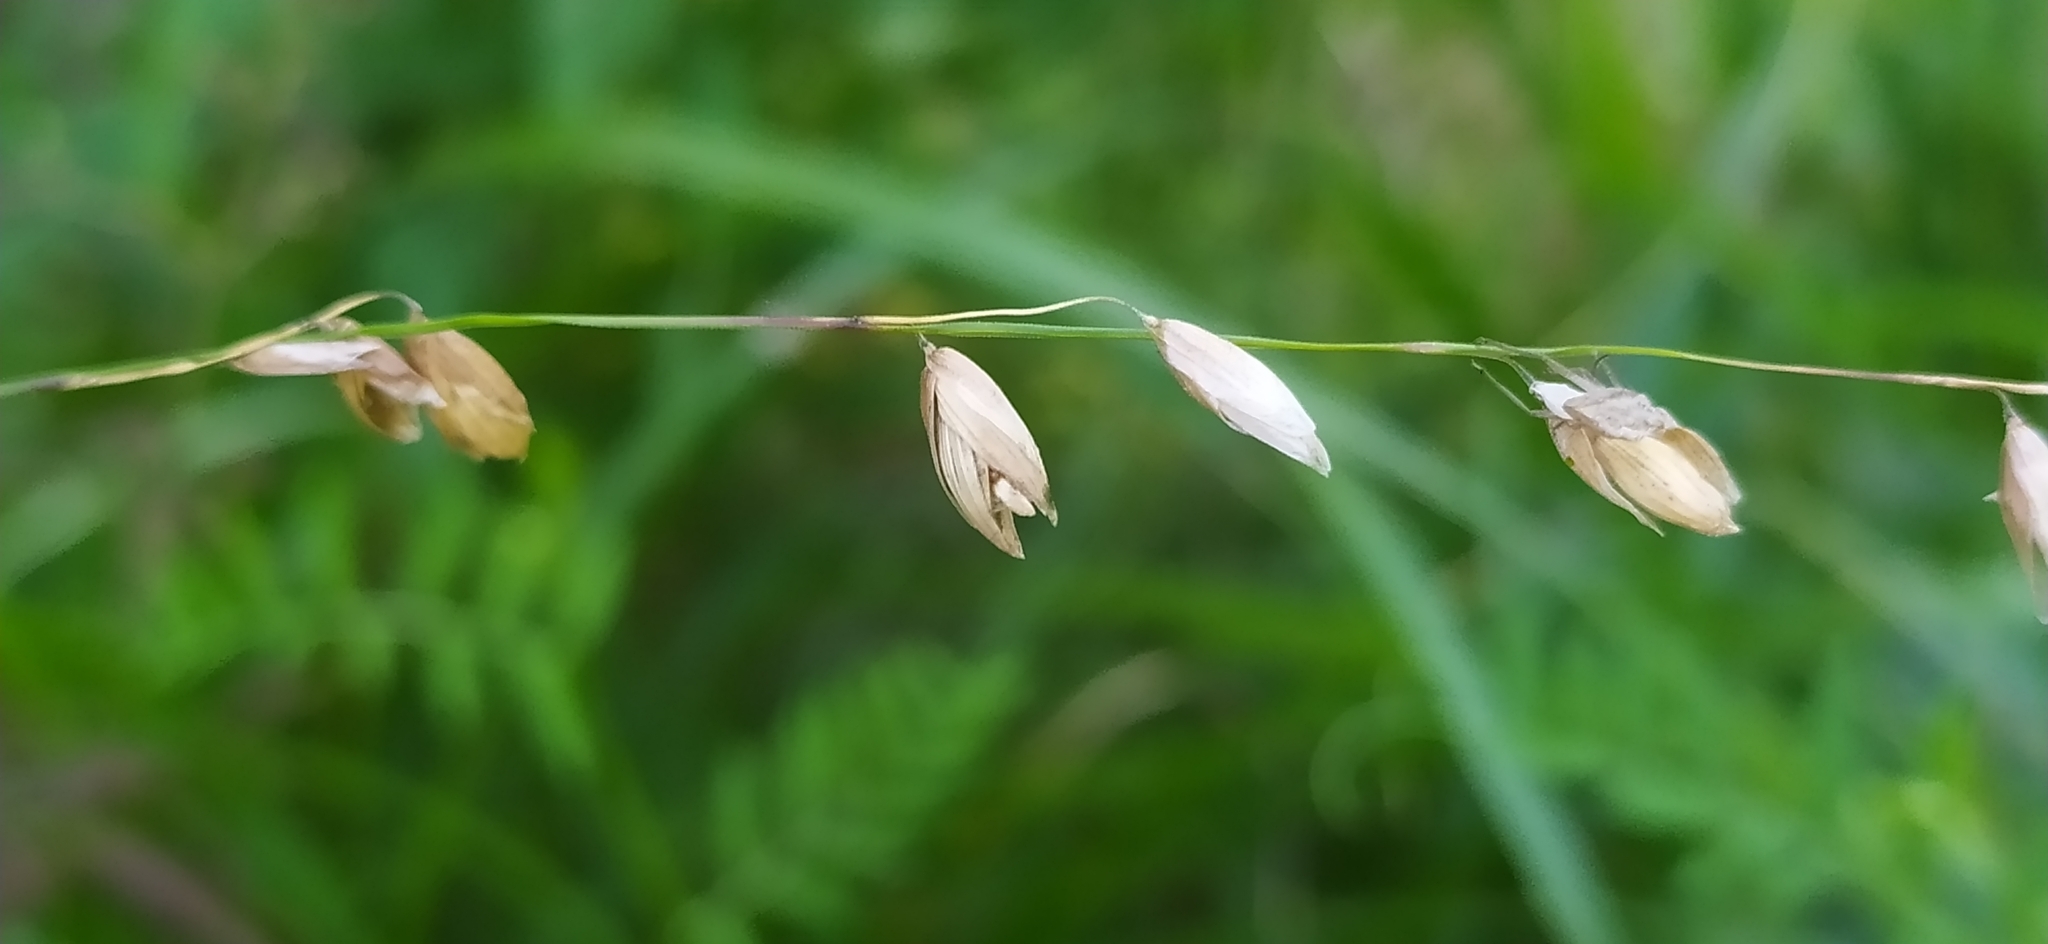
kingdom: Plantae
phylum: Tracheophyta
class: Liliopsida
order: Poales
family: Poaceae
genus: Melica
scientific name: Melica nutans
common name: Mountain melick
